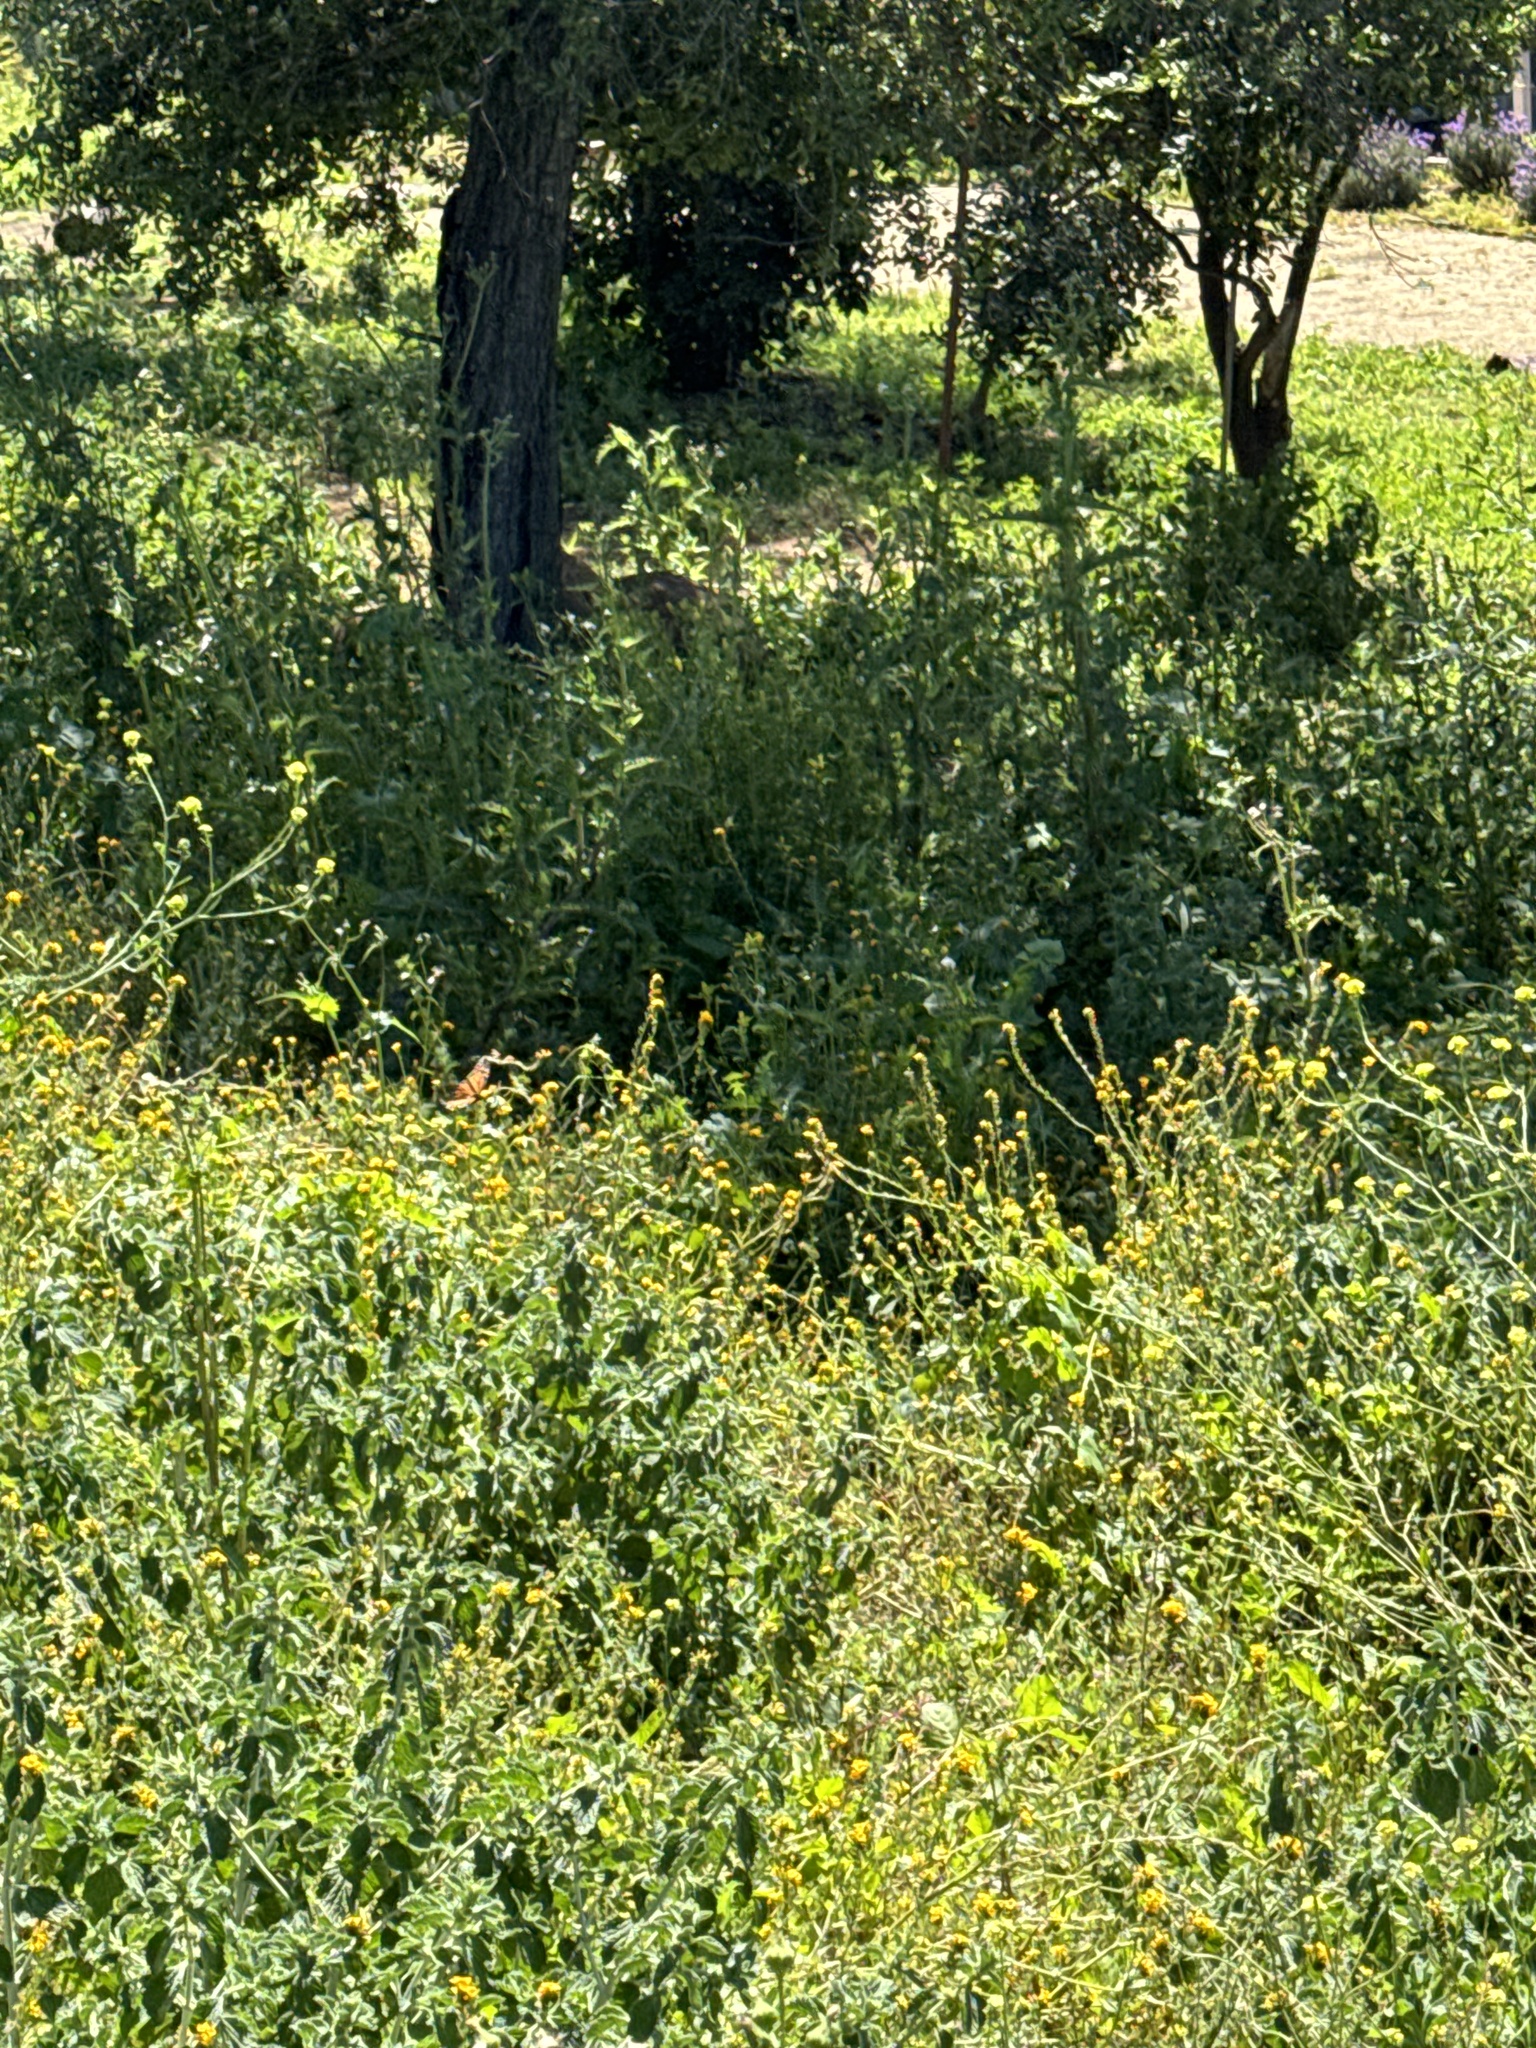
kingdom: Animalia
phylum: Arthropoda
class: Insecta
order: Lepidoptera
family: Nymphalidae
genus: Danaus
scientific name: Danaus plexippus
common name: Monarch
